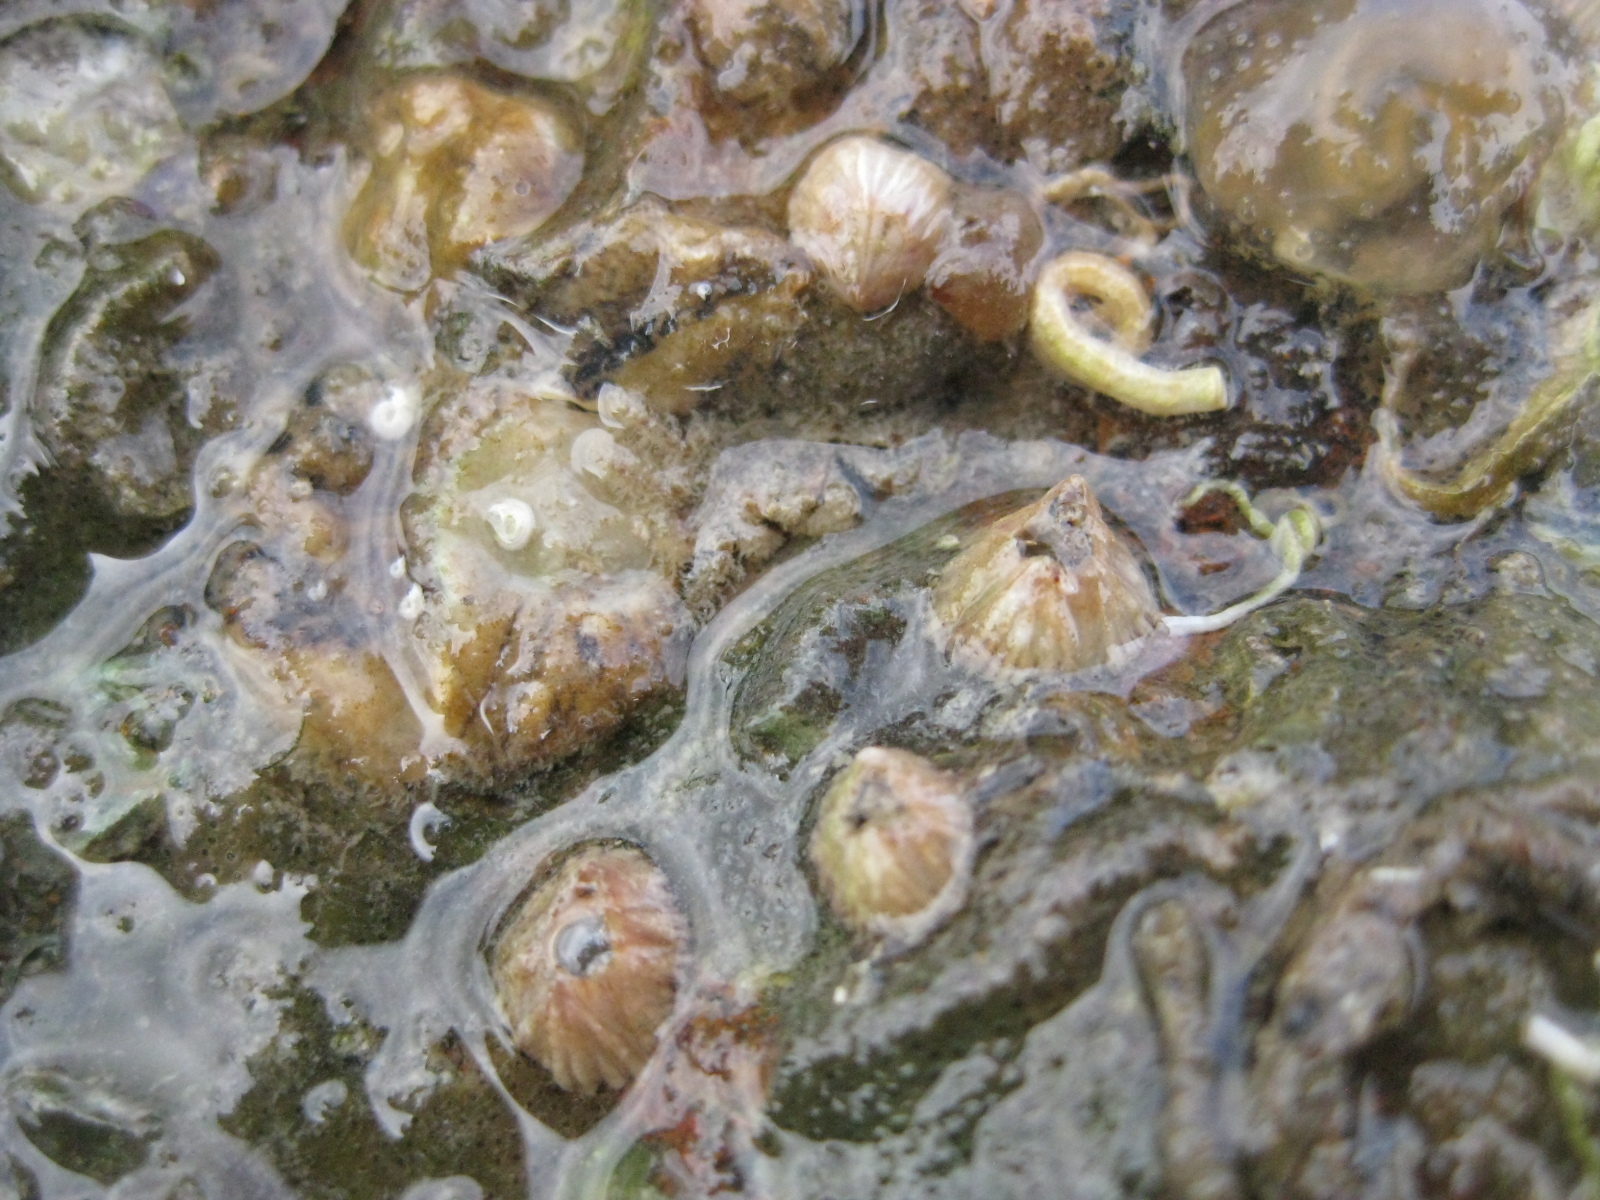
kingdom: Animalia
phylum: Arthropoda
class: Maxillopoda
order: Sessilia
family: Balanidae
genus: Balanus
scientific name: Balanus trigonus
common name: Triangle barnacle
